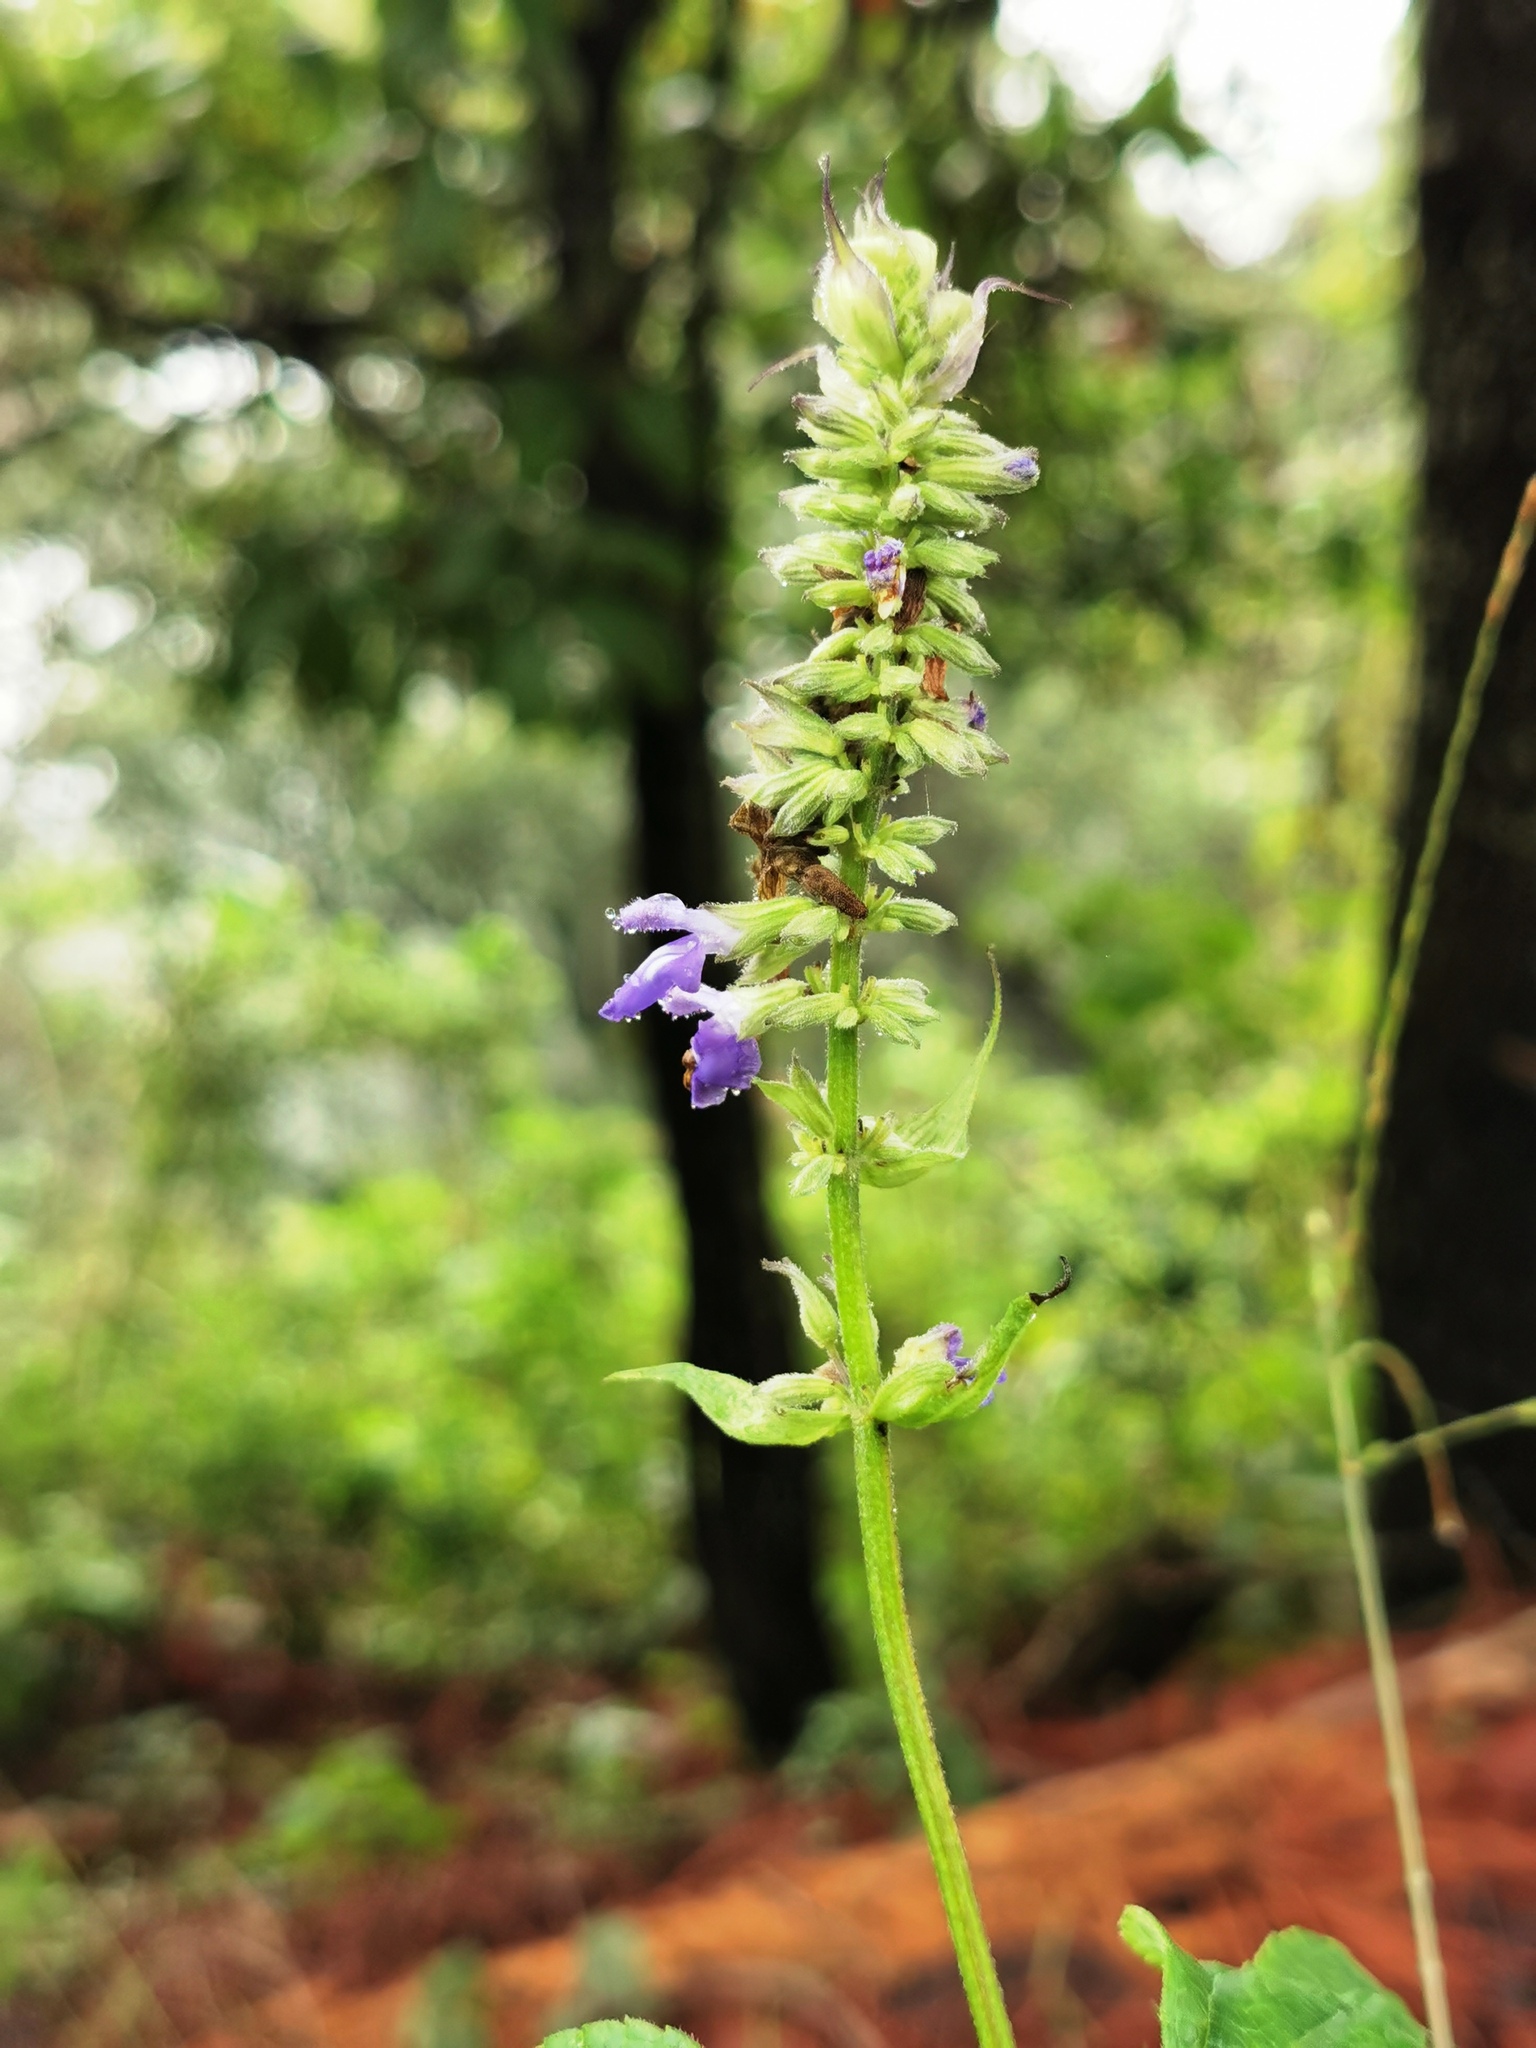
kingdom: Plantae
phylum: Tracheophyta
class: Magnoliopsida
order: Lamiales
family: Lamiaceae
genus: Salvia
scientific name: Salvia urolepis
